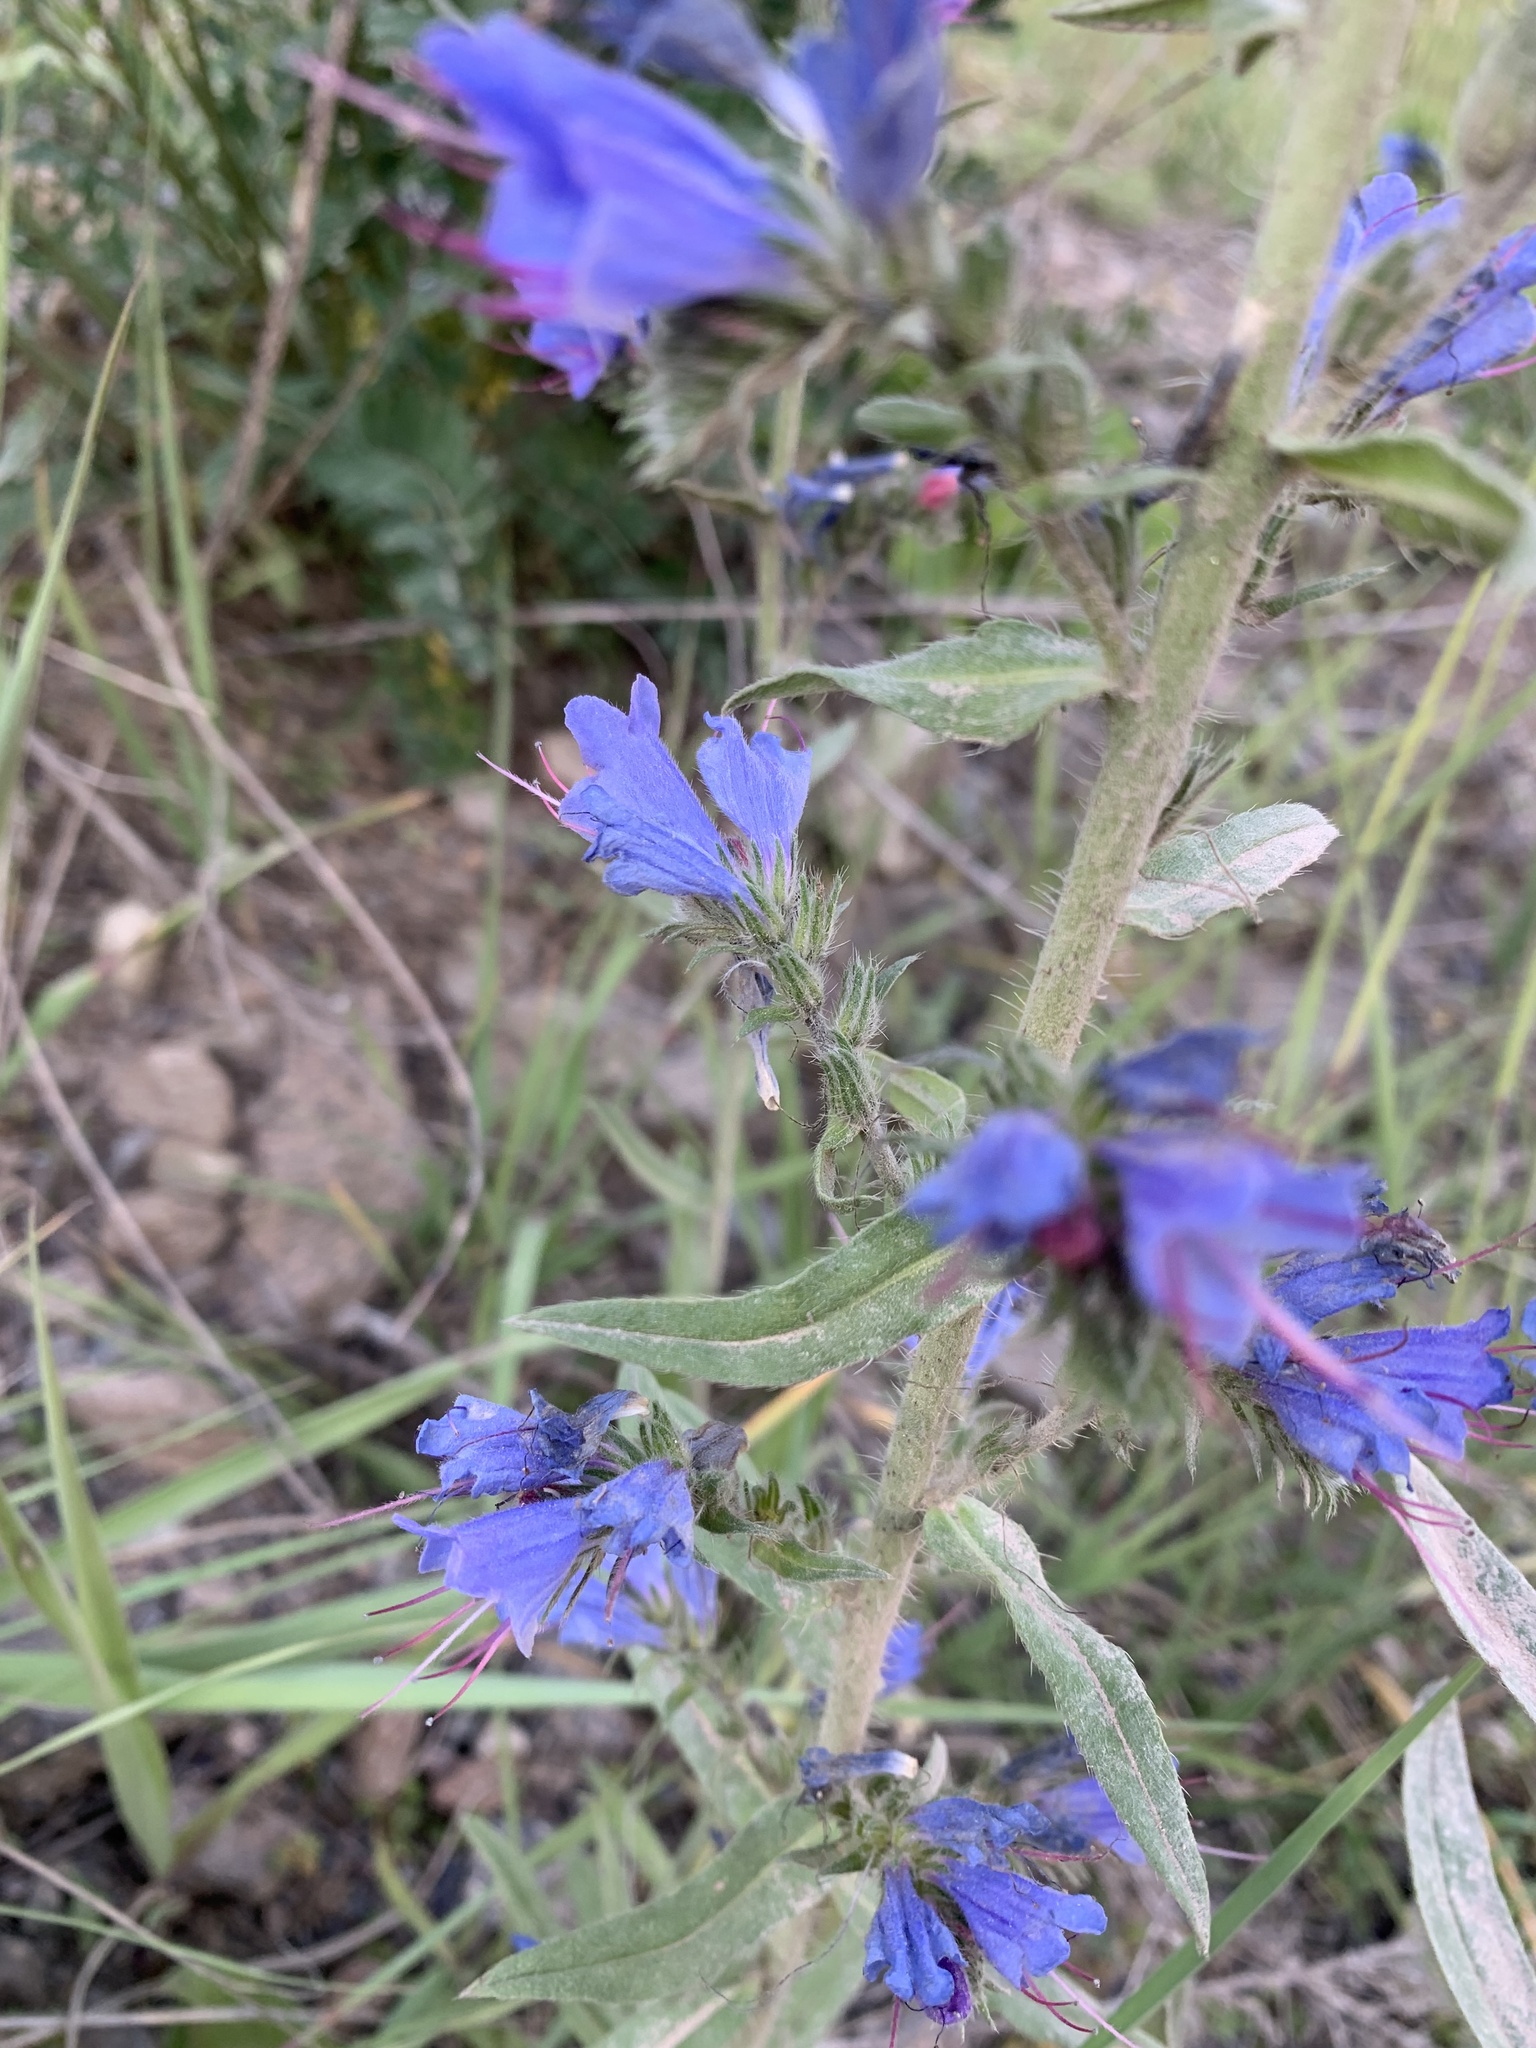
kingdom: Plantae
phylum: Tracheophyta
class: Magnoliopsida
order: Boraginales
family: Boraginaceae
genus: Echium
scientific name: Echium vulgare
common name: Common viper's bugloss
